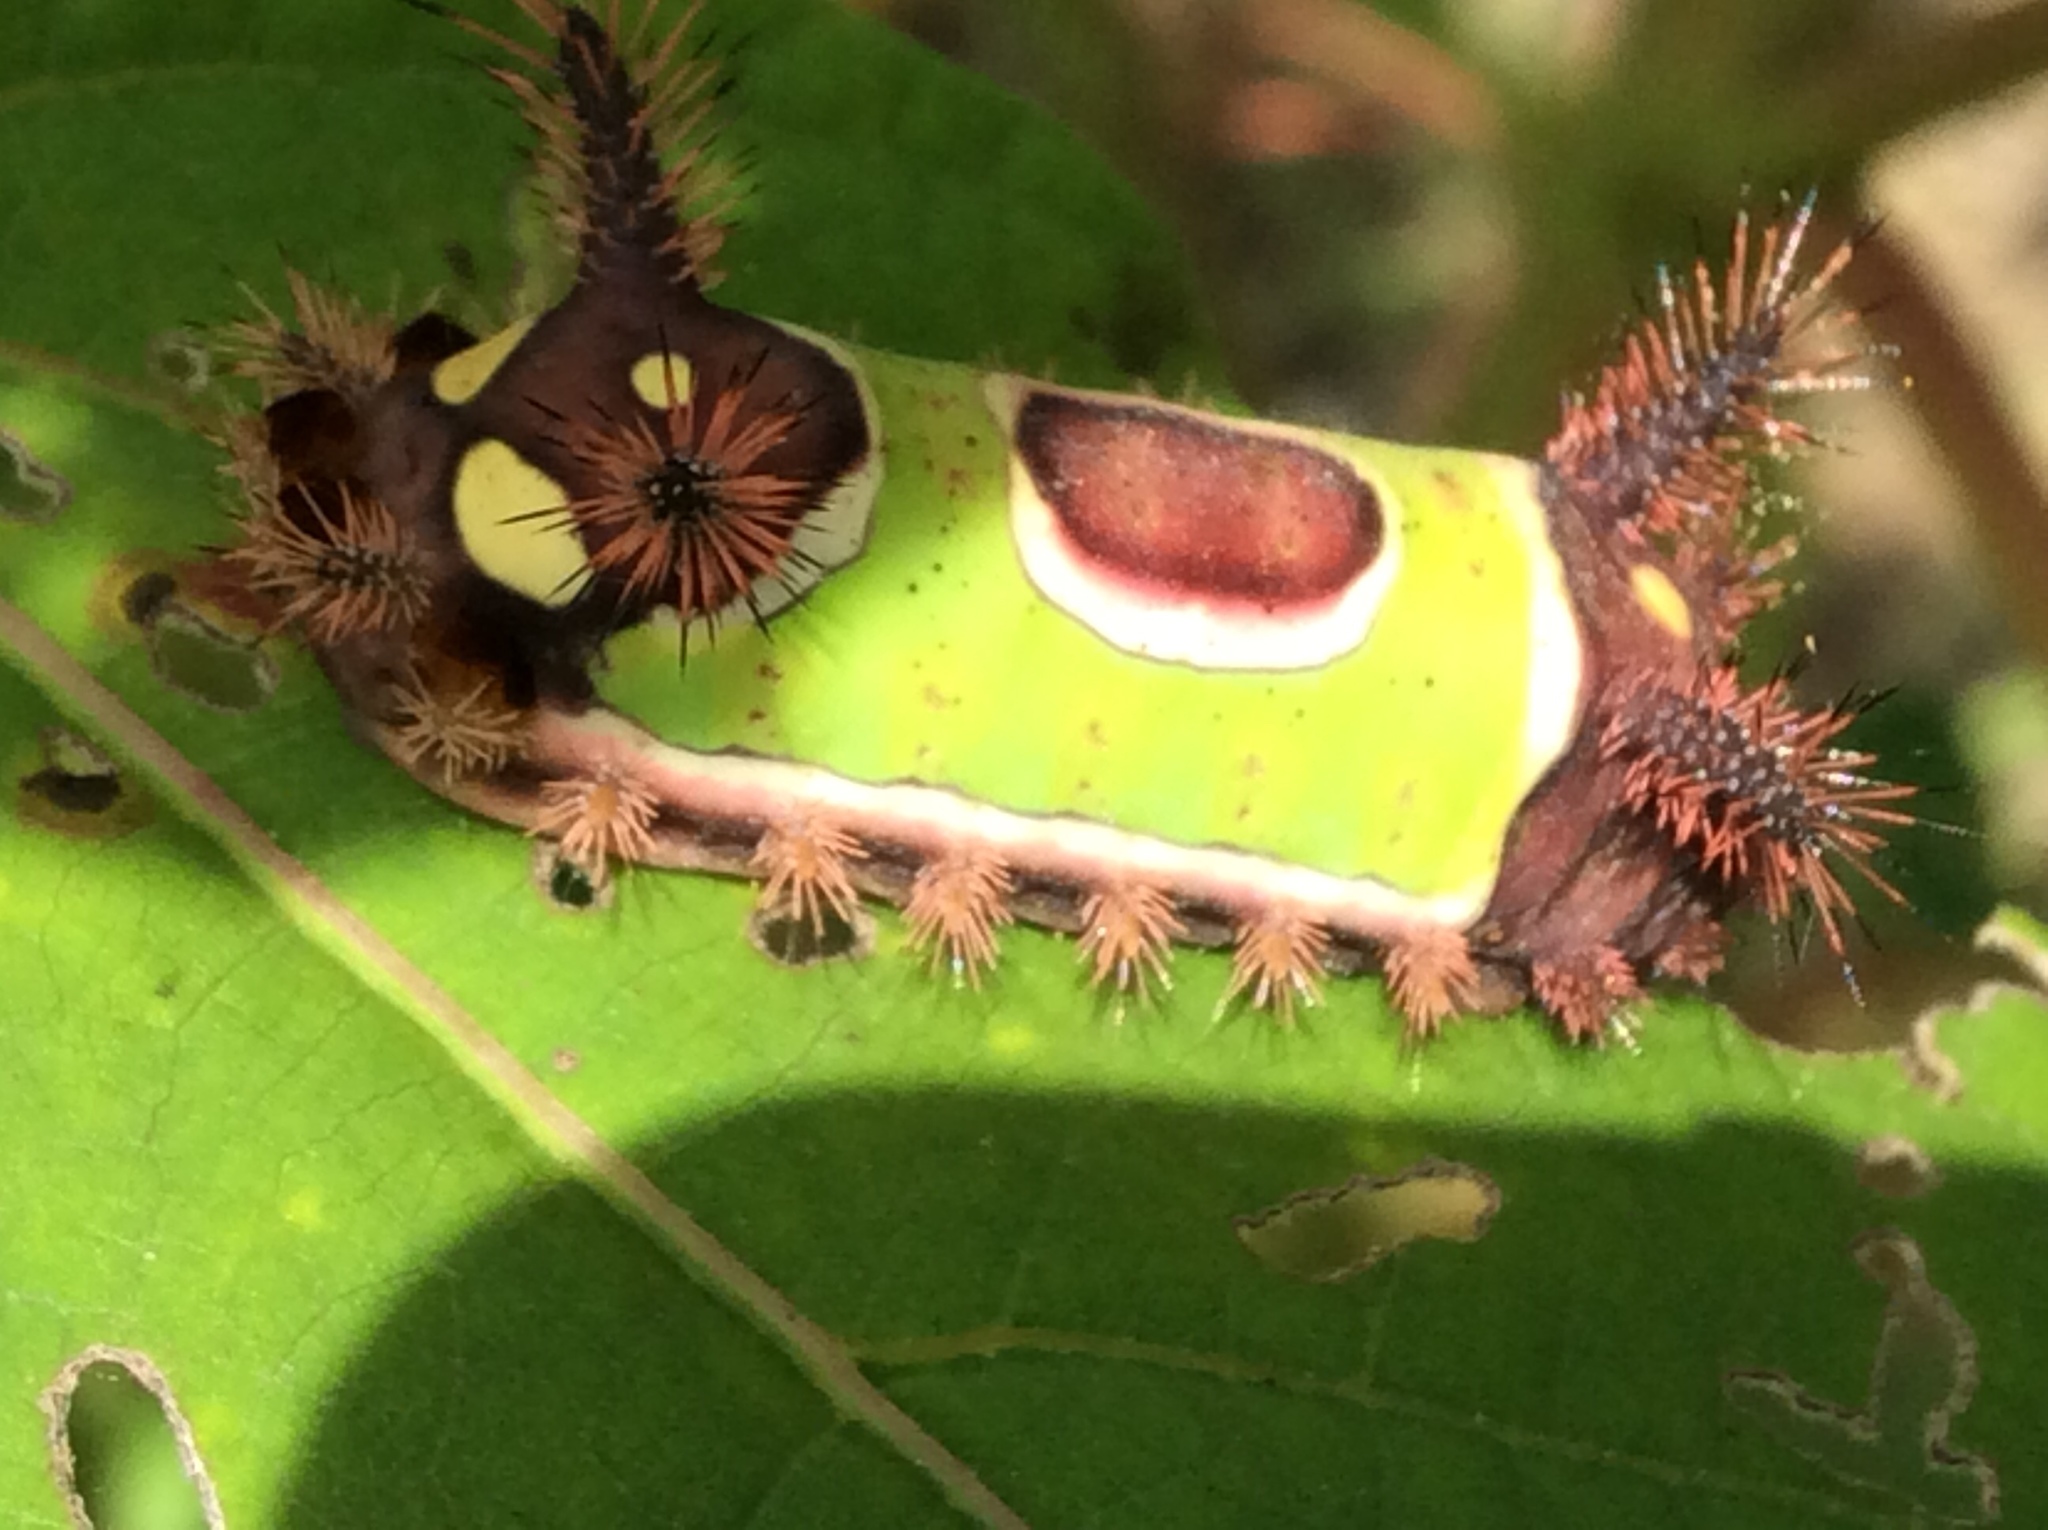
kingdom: Animalia
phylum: Arthropoda
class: Insecta
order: Lepidoptera
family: Limacodidae
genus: Acharia
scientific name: Acharia stimulea
